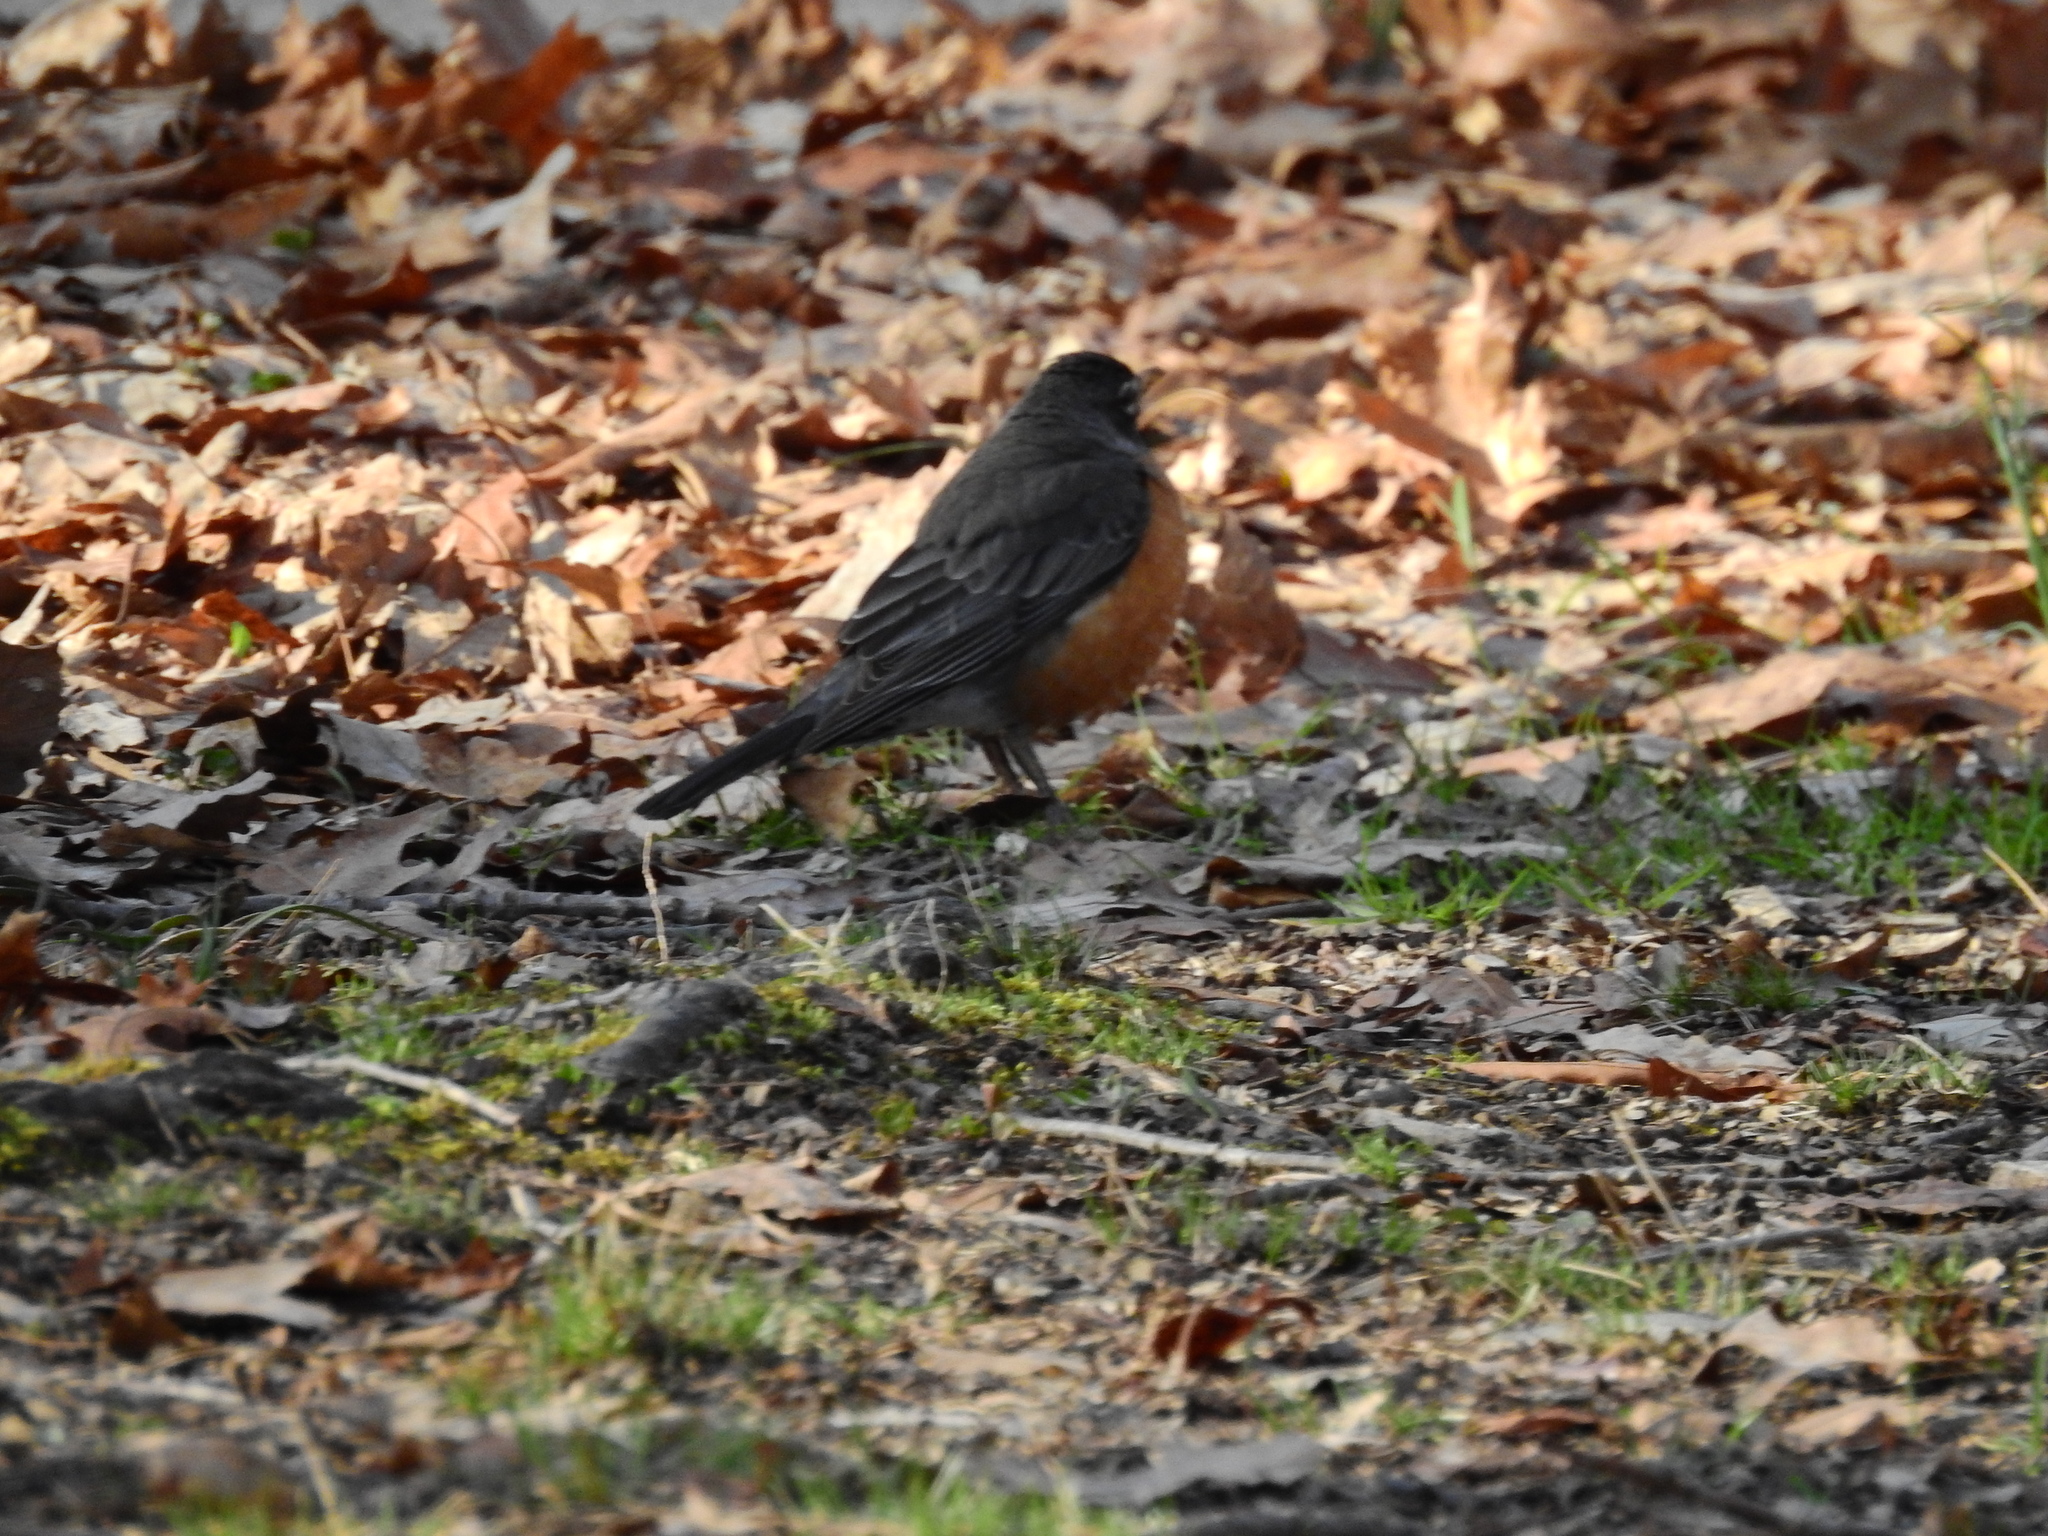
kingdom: Animalia
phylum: Chordata
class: Aves
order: Passeriformes
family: Turdidae
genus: Turdus
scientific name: Turdus migratorius
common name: American robin
